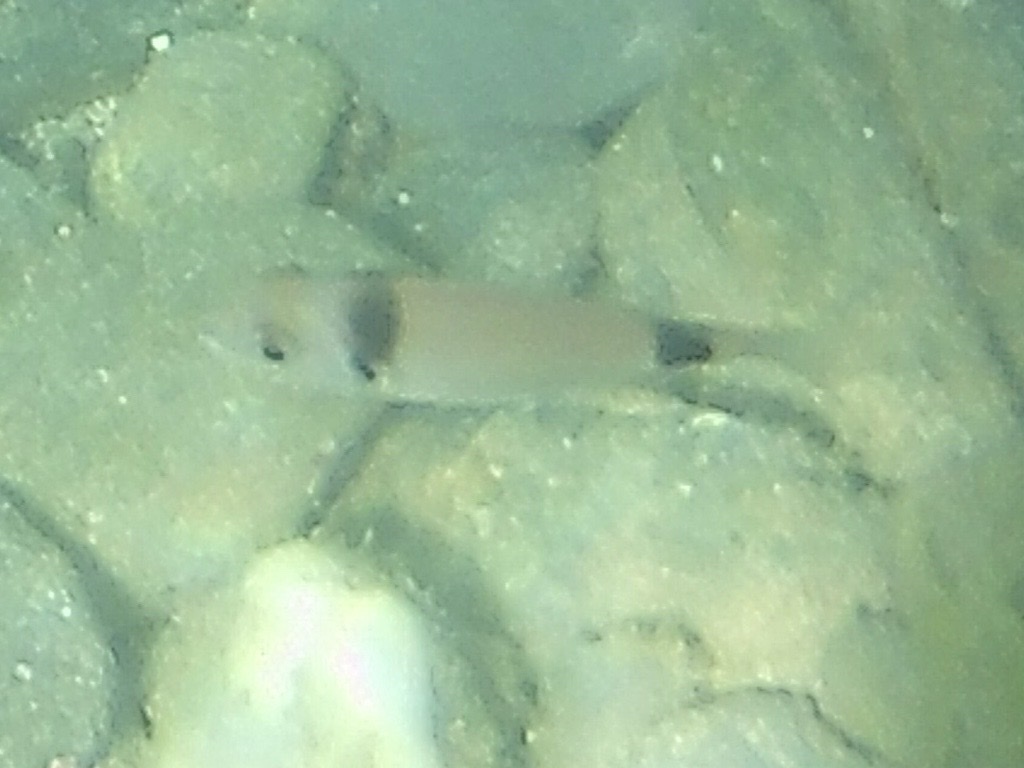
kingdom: Animalia
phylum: Chordata
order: Perciformes
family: Sparidae
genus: Diplodus
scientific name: Diplodus vulgaris
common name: Common two-banded seabream
